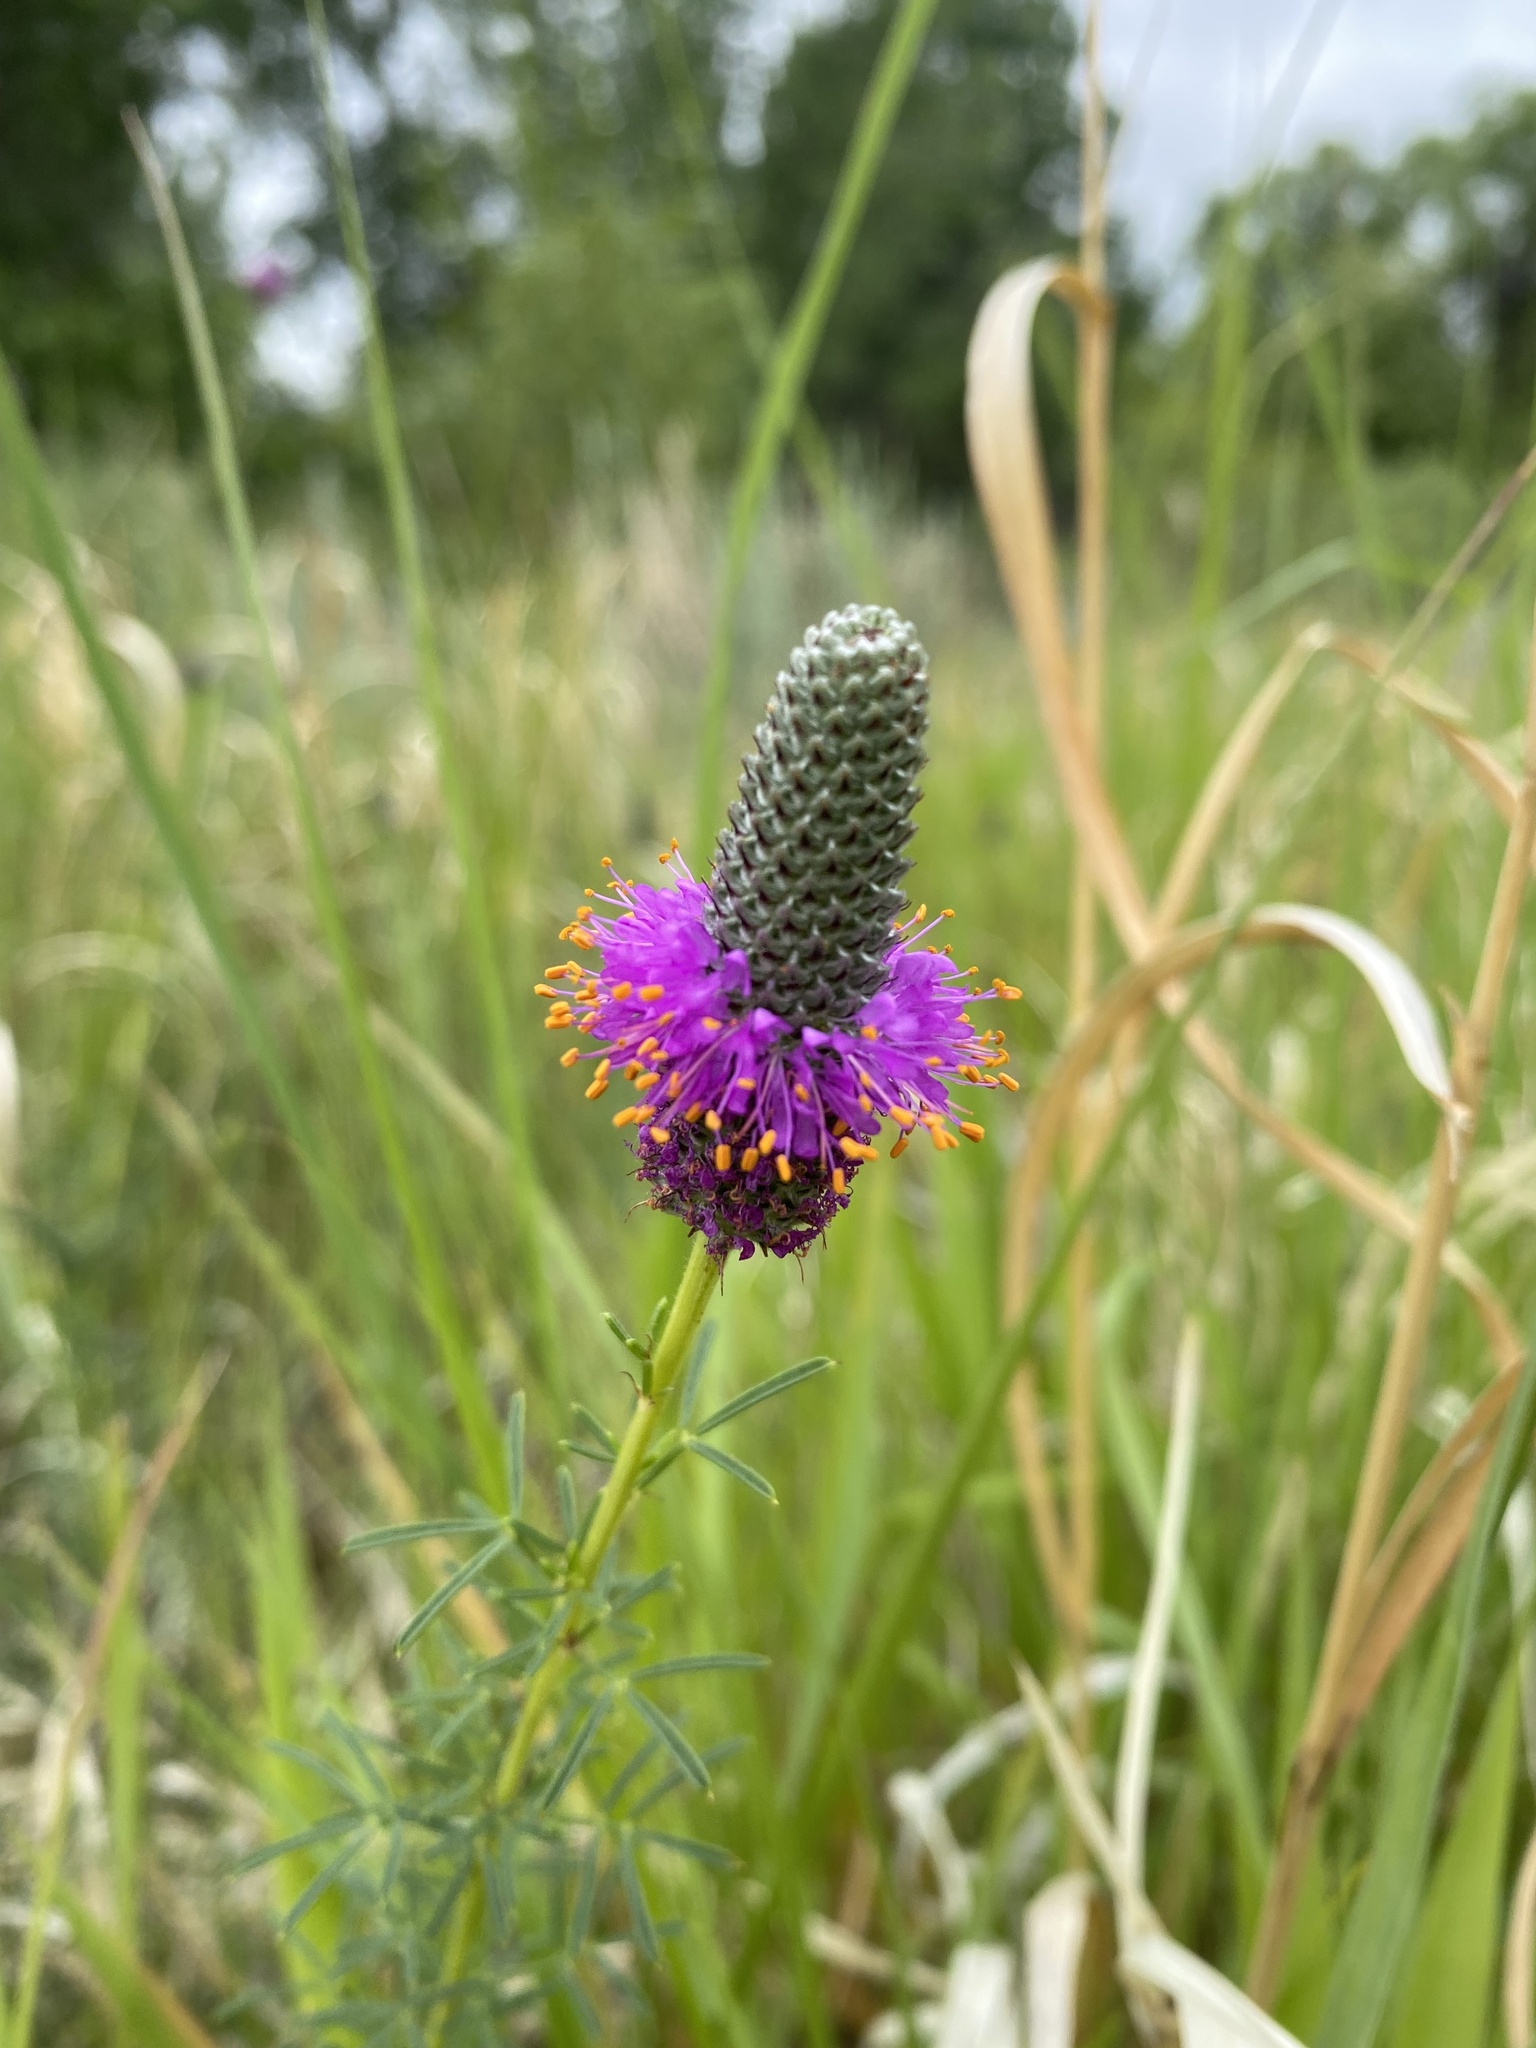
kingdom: Plantae
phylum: Tracheophyta
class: Magnoliopsida
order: Fabales
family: Fabaceae
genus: Dalea
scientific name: Dalea purpurea
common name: Purple prairie-clover
